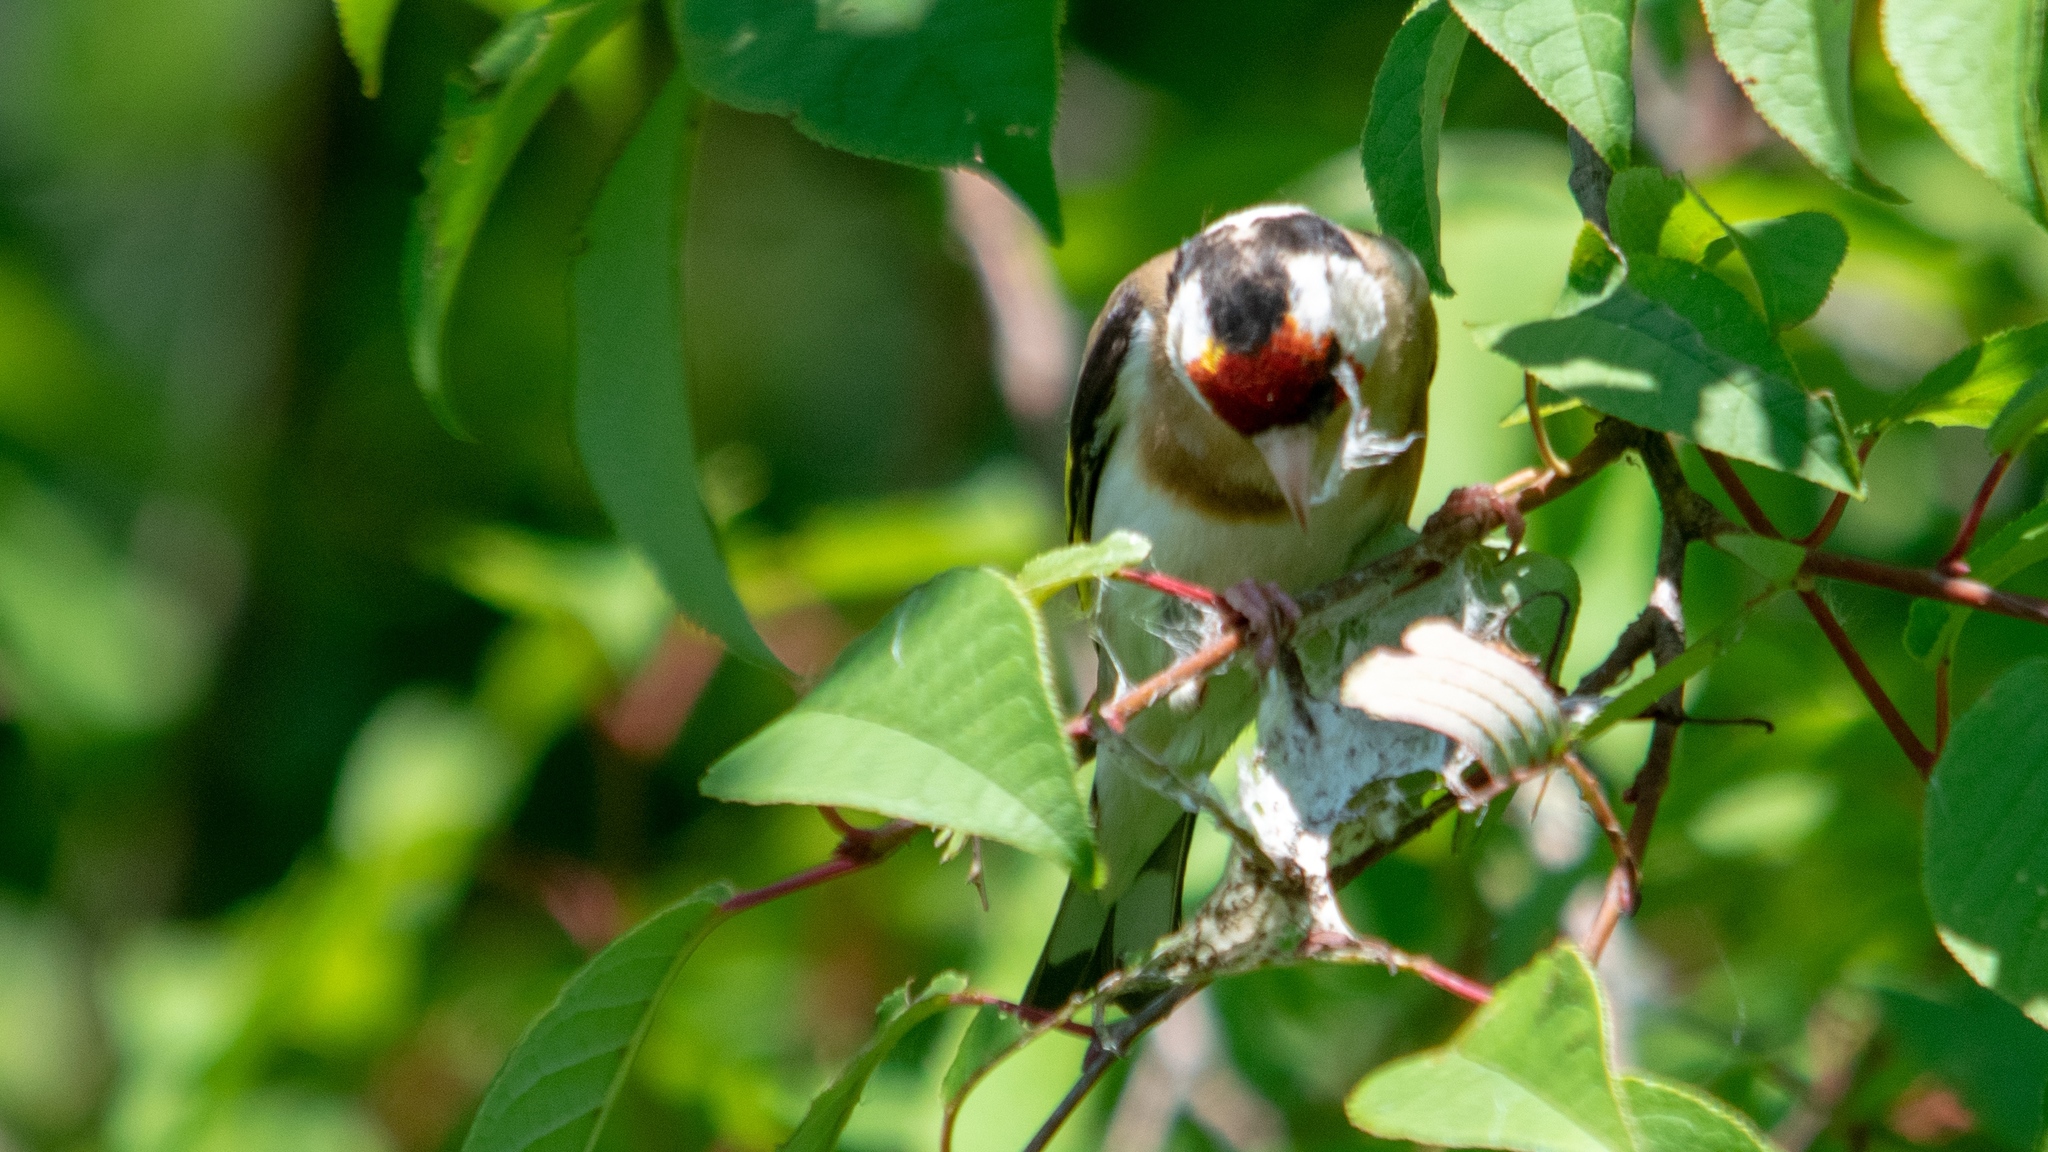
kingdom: Animalia
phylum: Chordata
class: Aves
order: Passeriformes
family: Fringillidae
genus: Carduelis
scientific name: Carduelis carduelis
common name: European goldfinch
